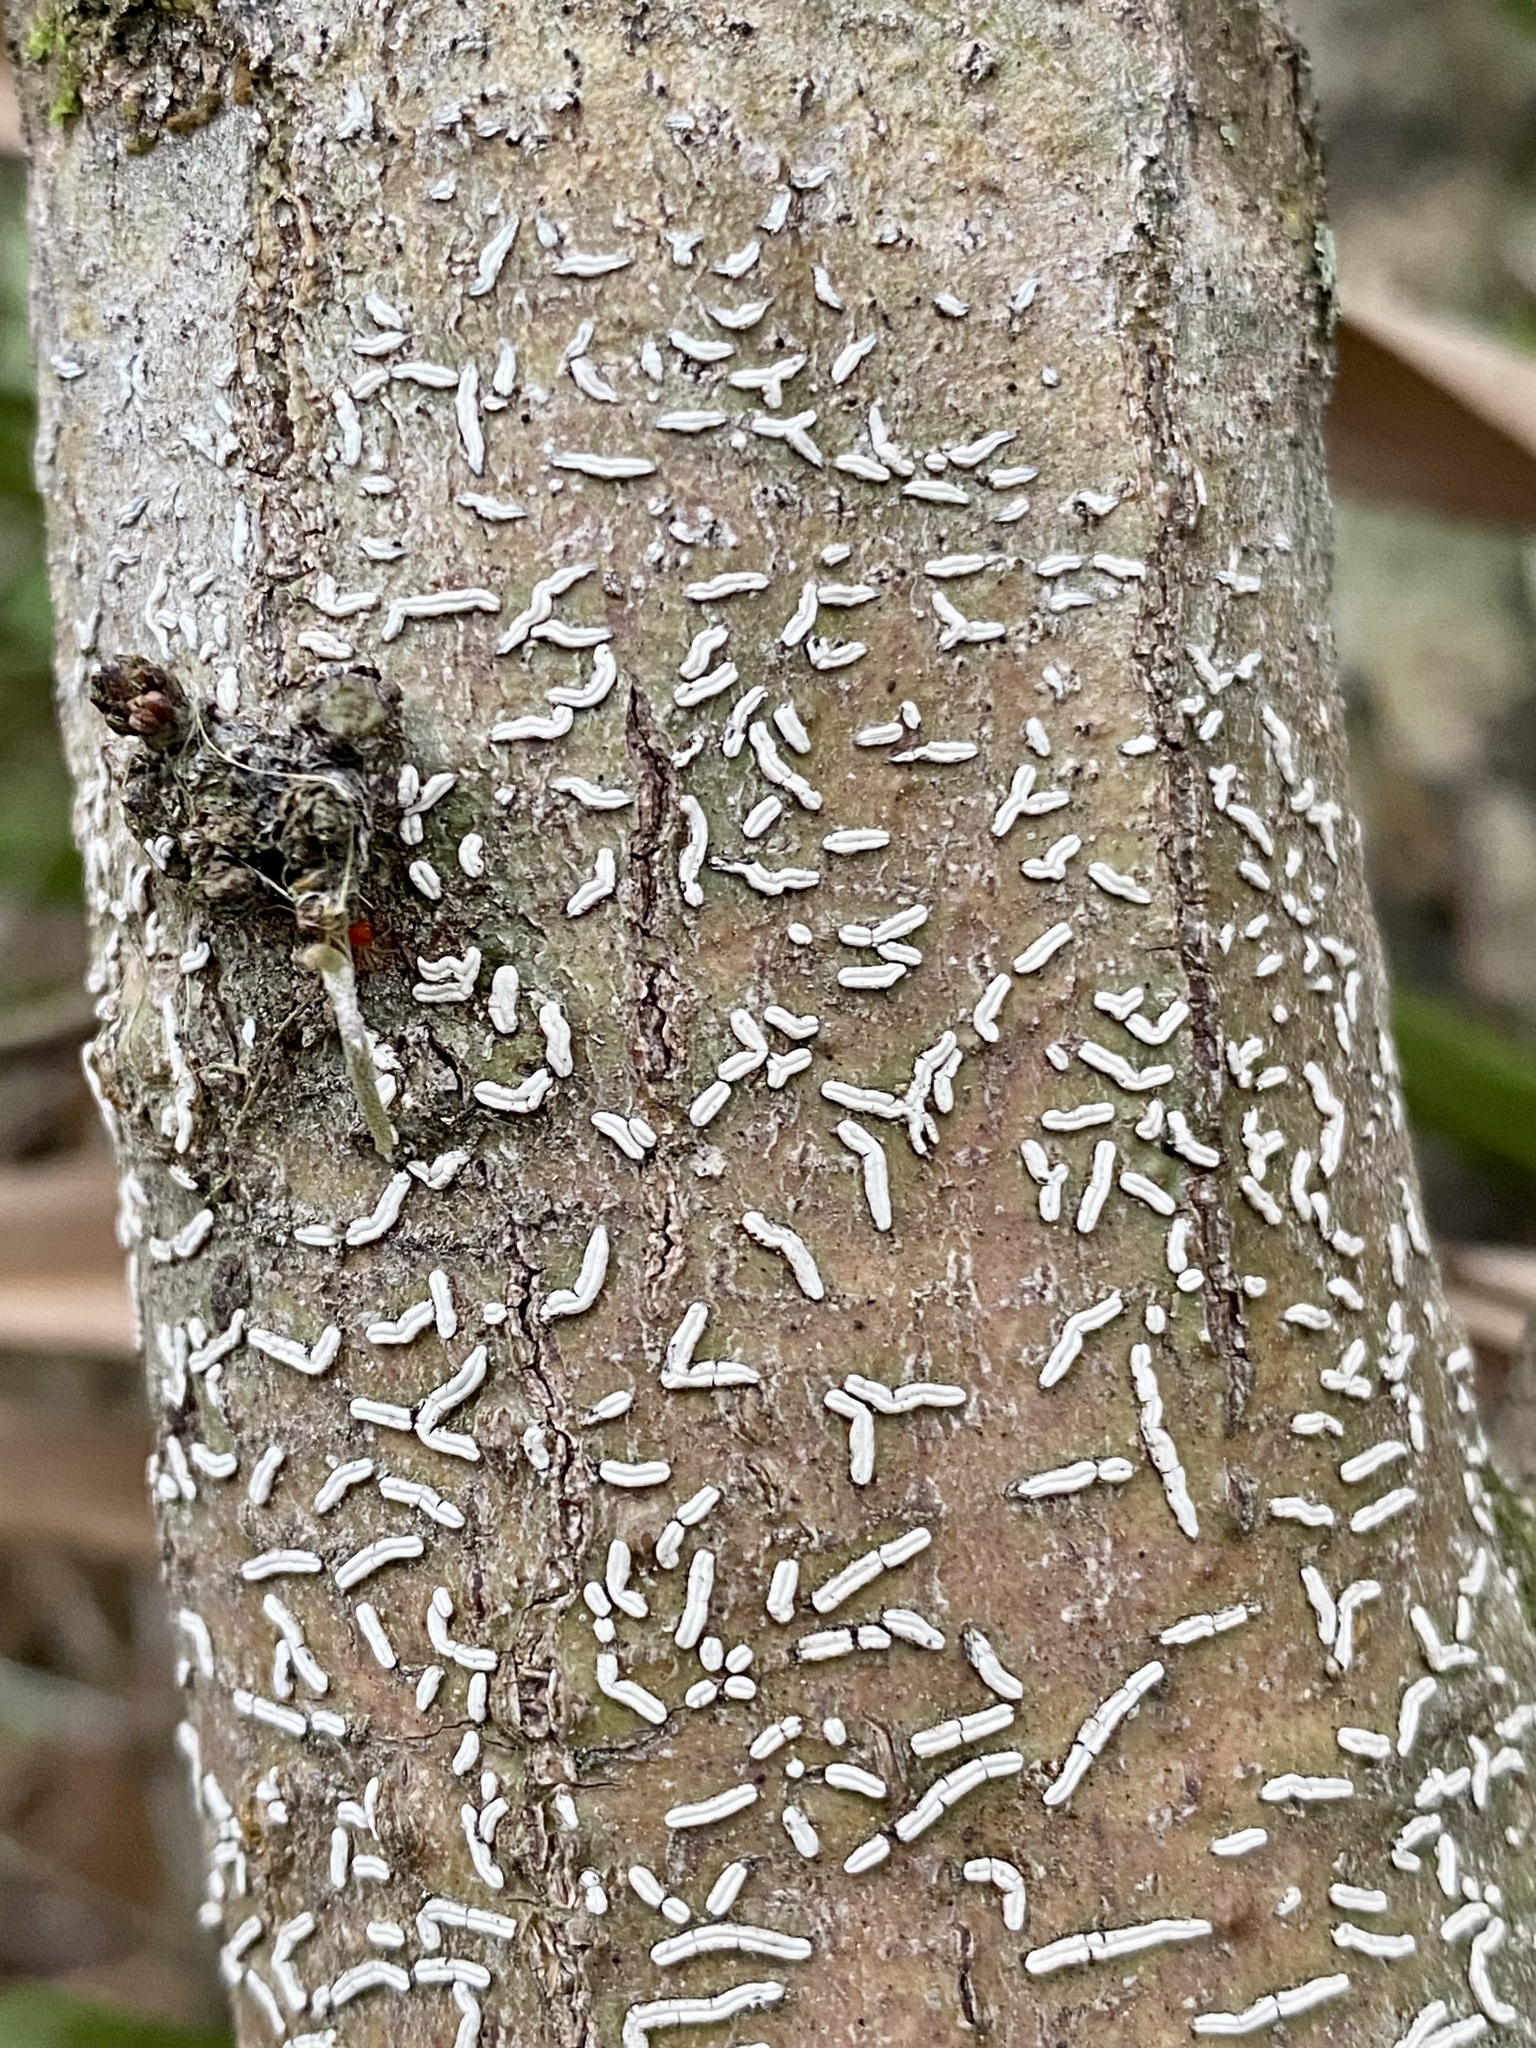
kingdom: Fungi
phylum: Ascomycota
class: Lecanoromycetes
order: Ostropales
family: Graphidaceae
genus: Dyplolabia
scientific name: Dyplolabia afzelii
